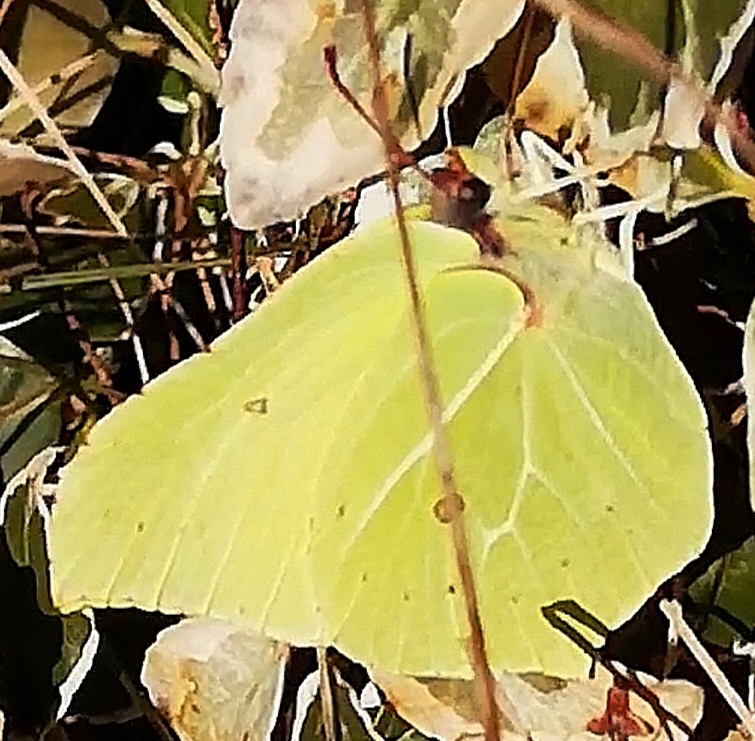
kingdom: Animalia
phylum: Arthropoda
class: Insecta
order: Lepidoptera
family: Pieridae
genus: Gonepteryx
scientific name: Gonepteryx rhamni
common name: Brimstone
